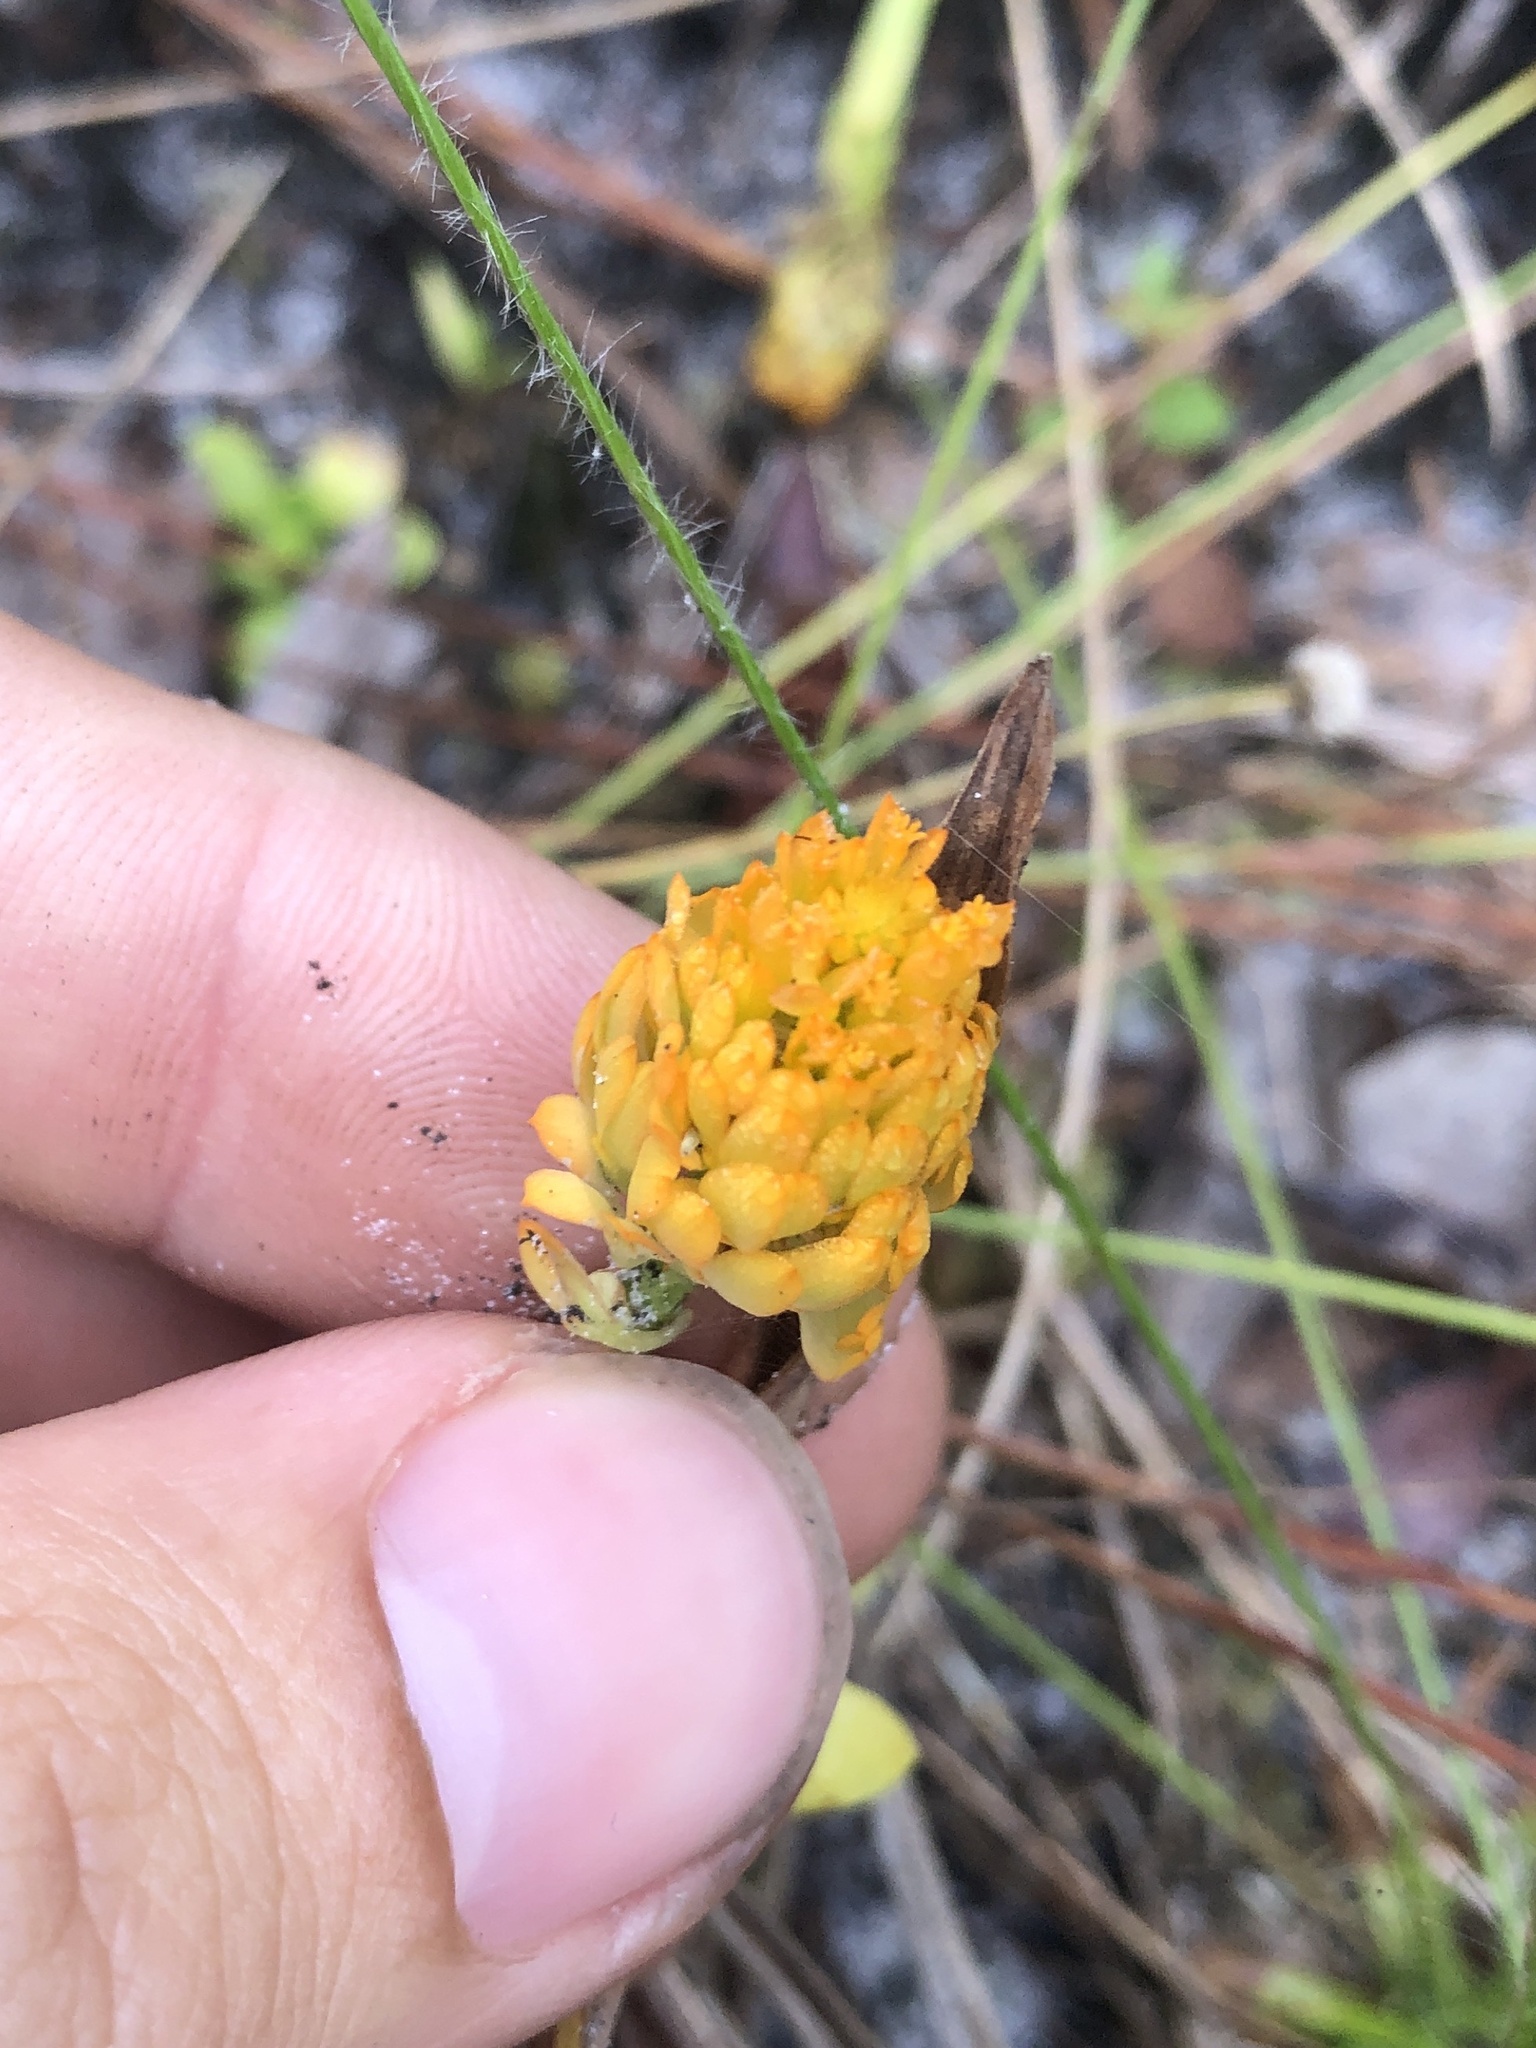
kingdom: Plantae
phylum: Tracheophyta
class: Magnoliopsida
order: Fabales
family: Polygalaceae
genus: Polygala
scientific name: Polygala lutea
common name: Orange milkwort
